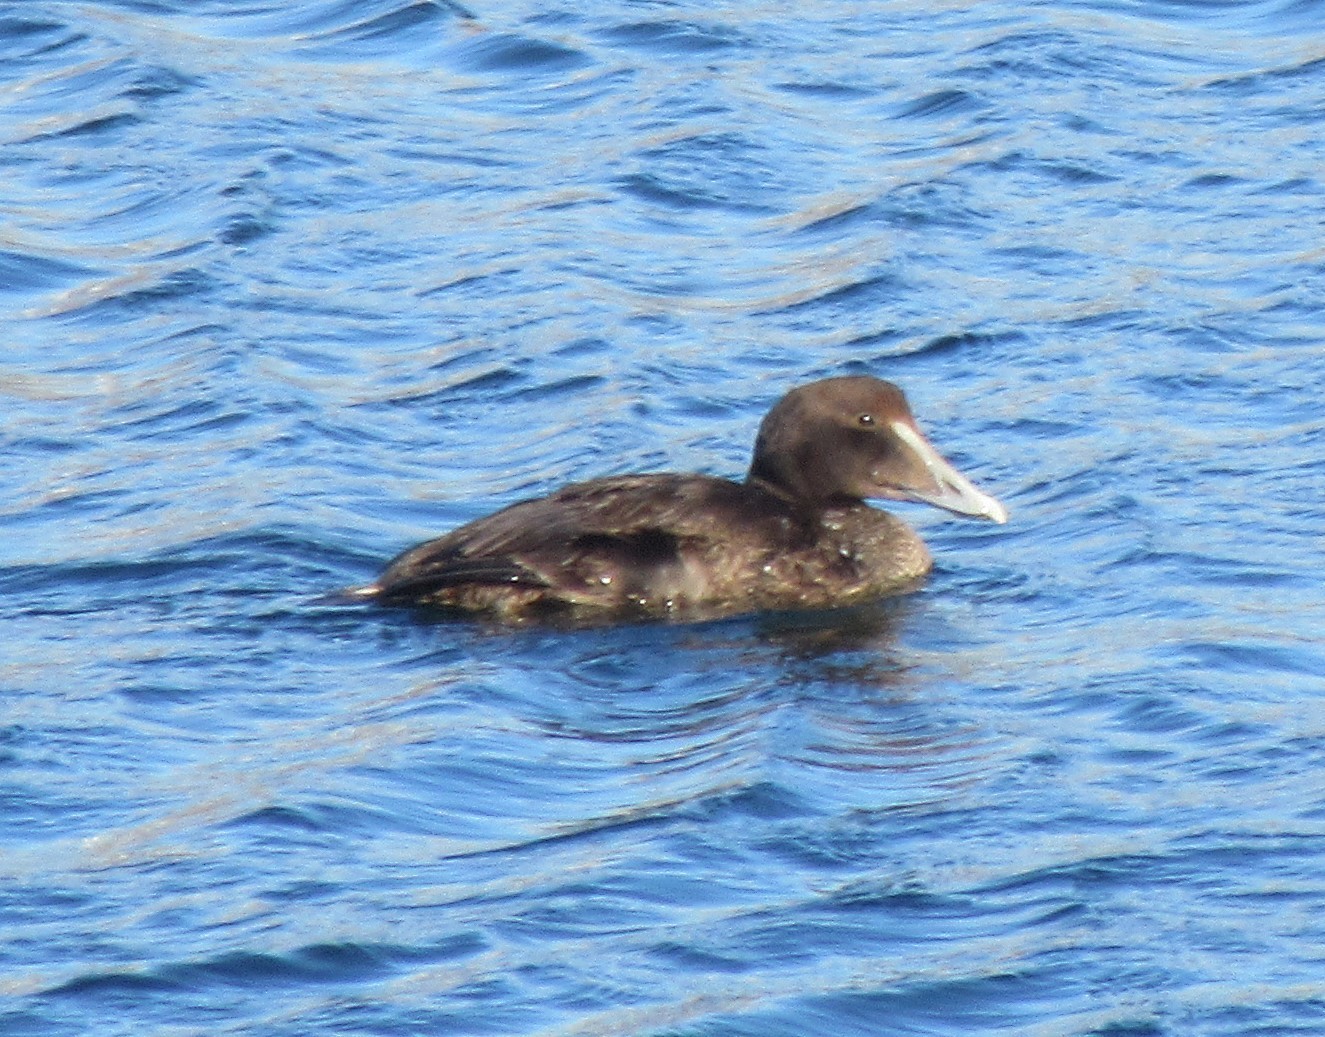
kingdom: Animalia
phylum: Chordata
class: Aves
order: Anseriformes
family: Anatidae
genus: Somateria
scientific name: Somateria mollissima
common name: Common eider
